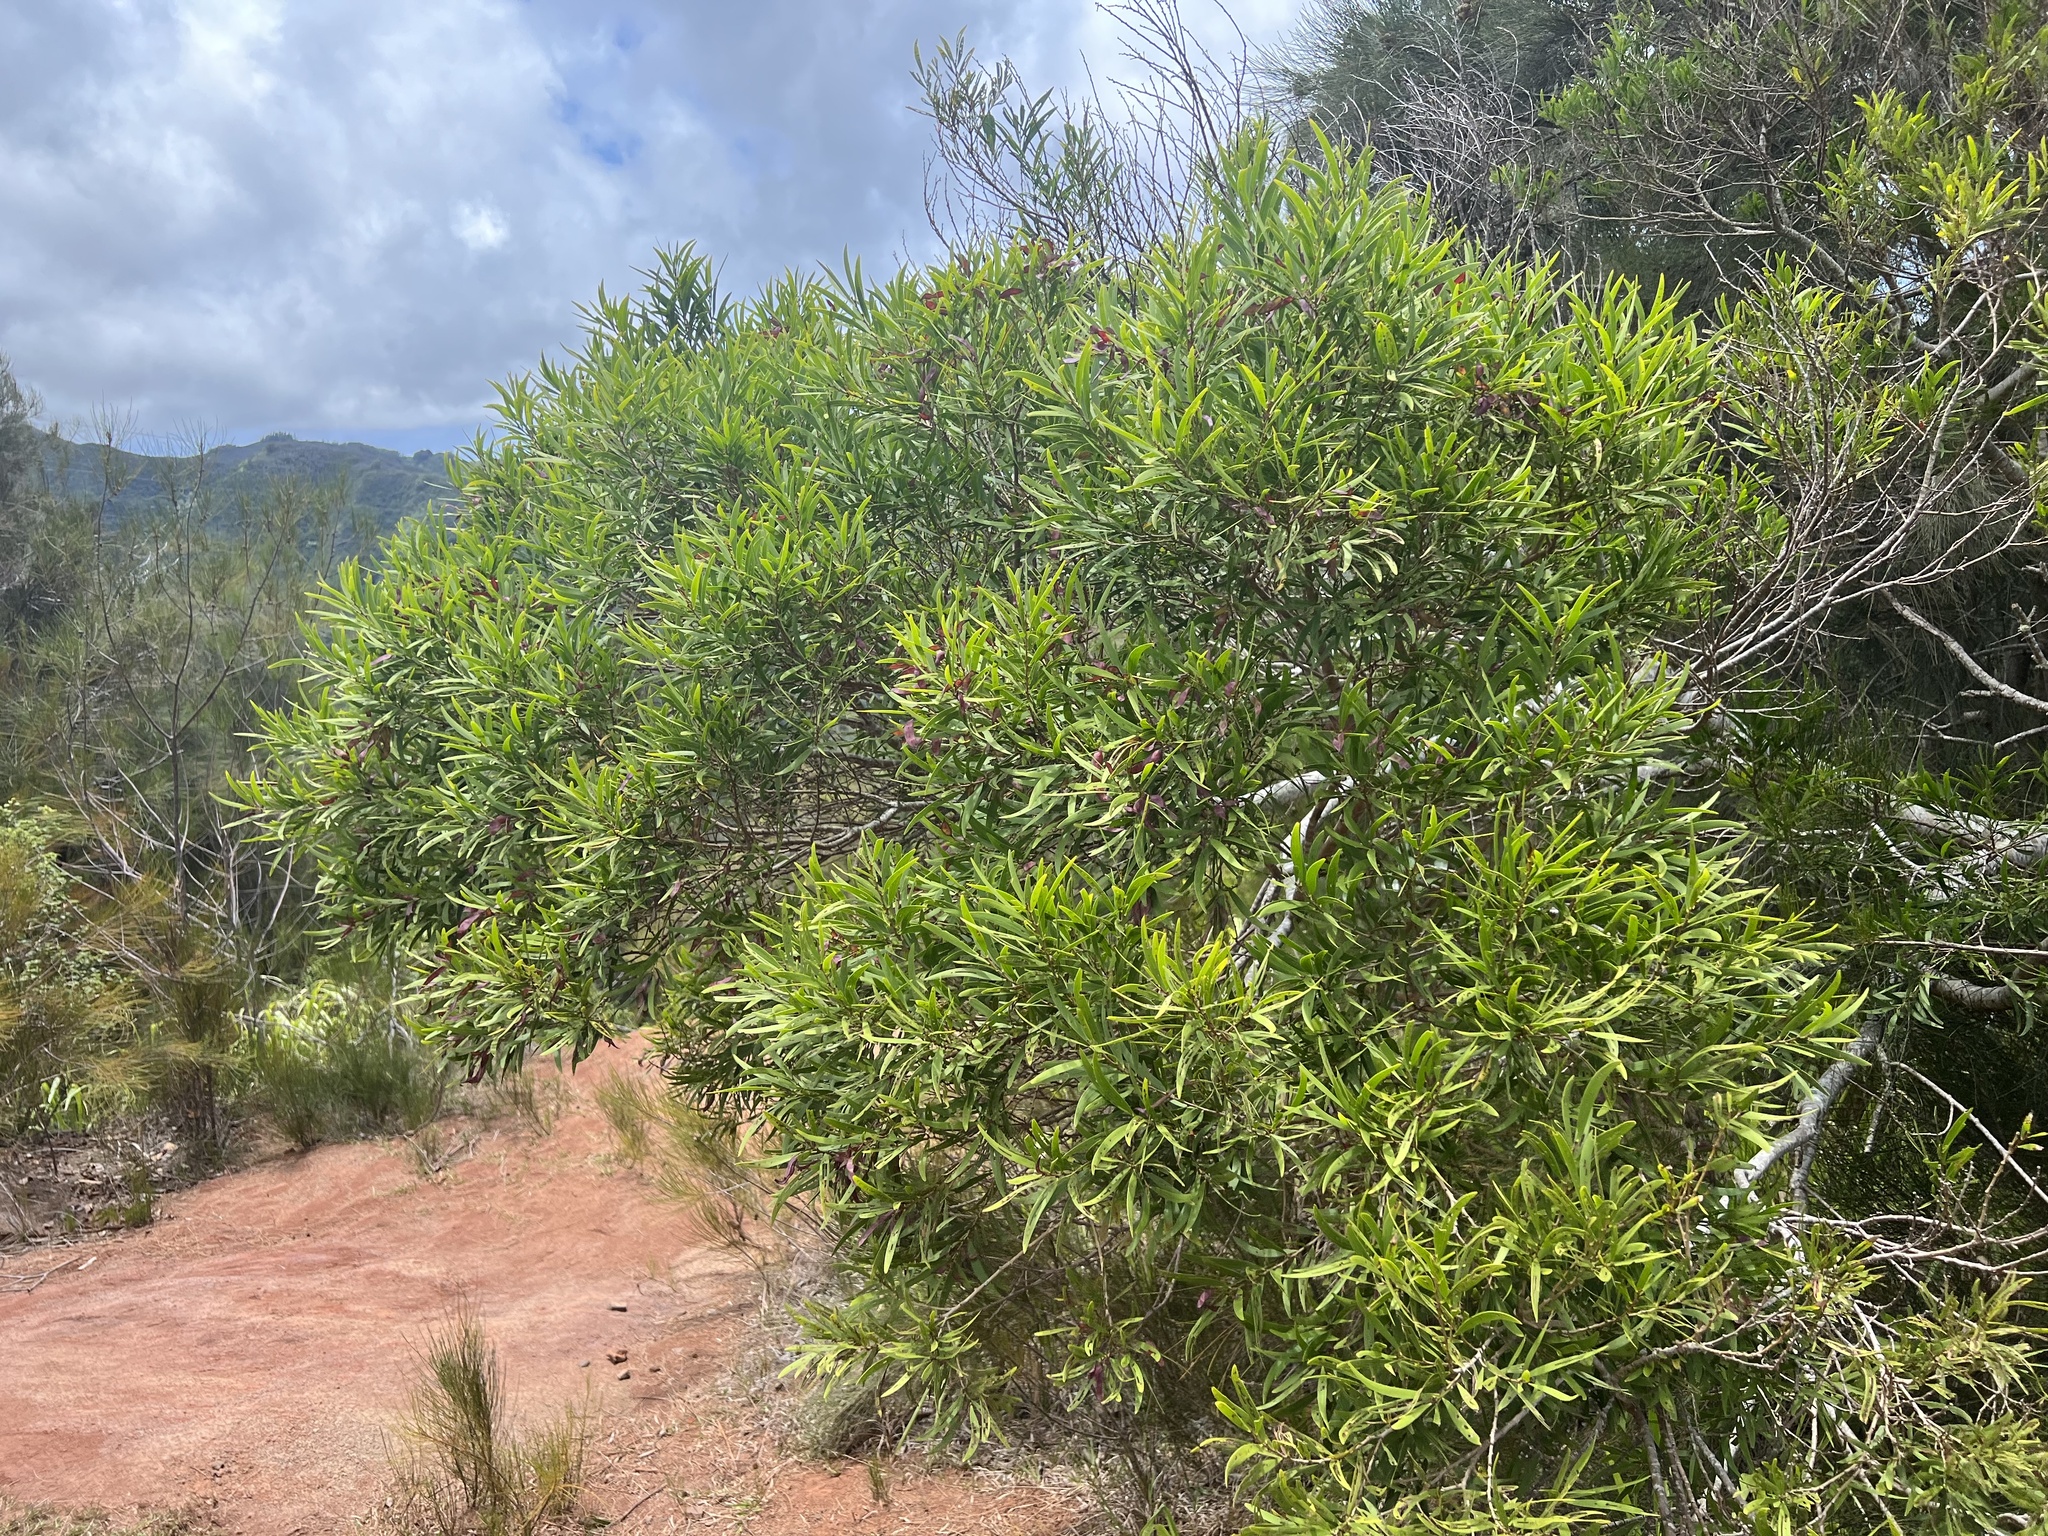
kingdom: Plantae
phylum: Tracheophyta
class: Magnoliopsida
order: Fabales
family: Fabaceae
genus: Acacia
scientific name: Acacia confusa
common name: Formosan koa
